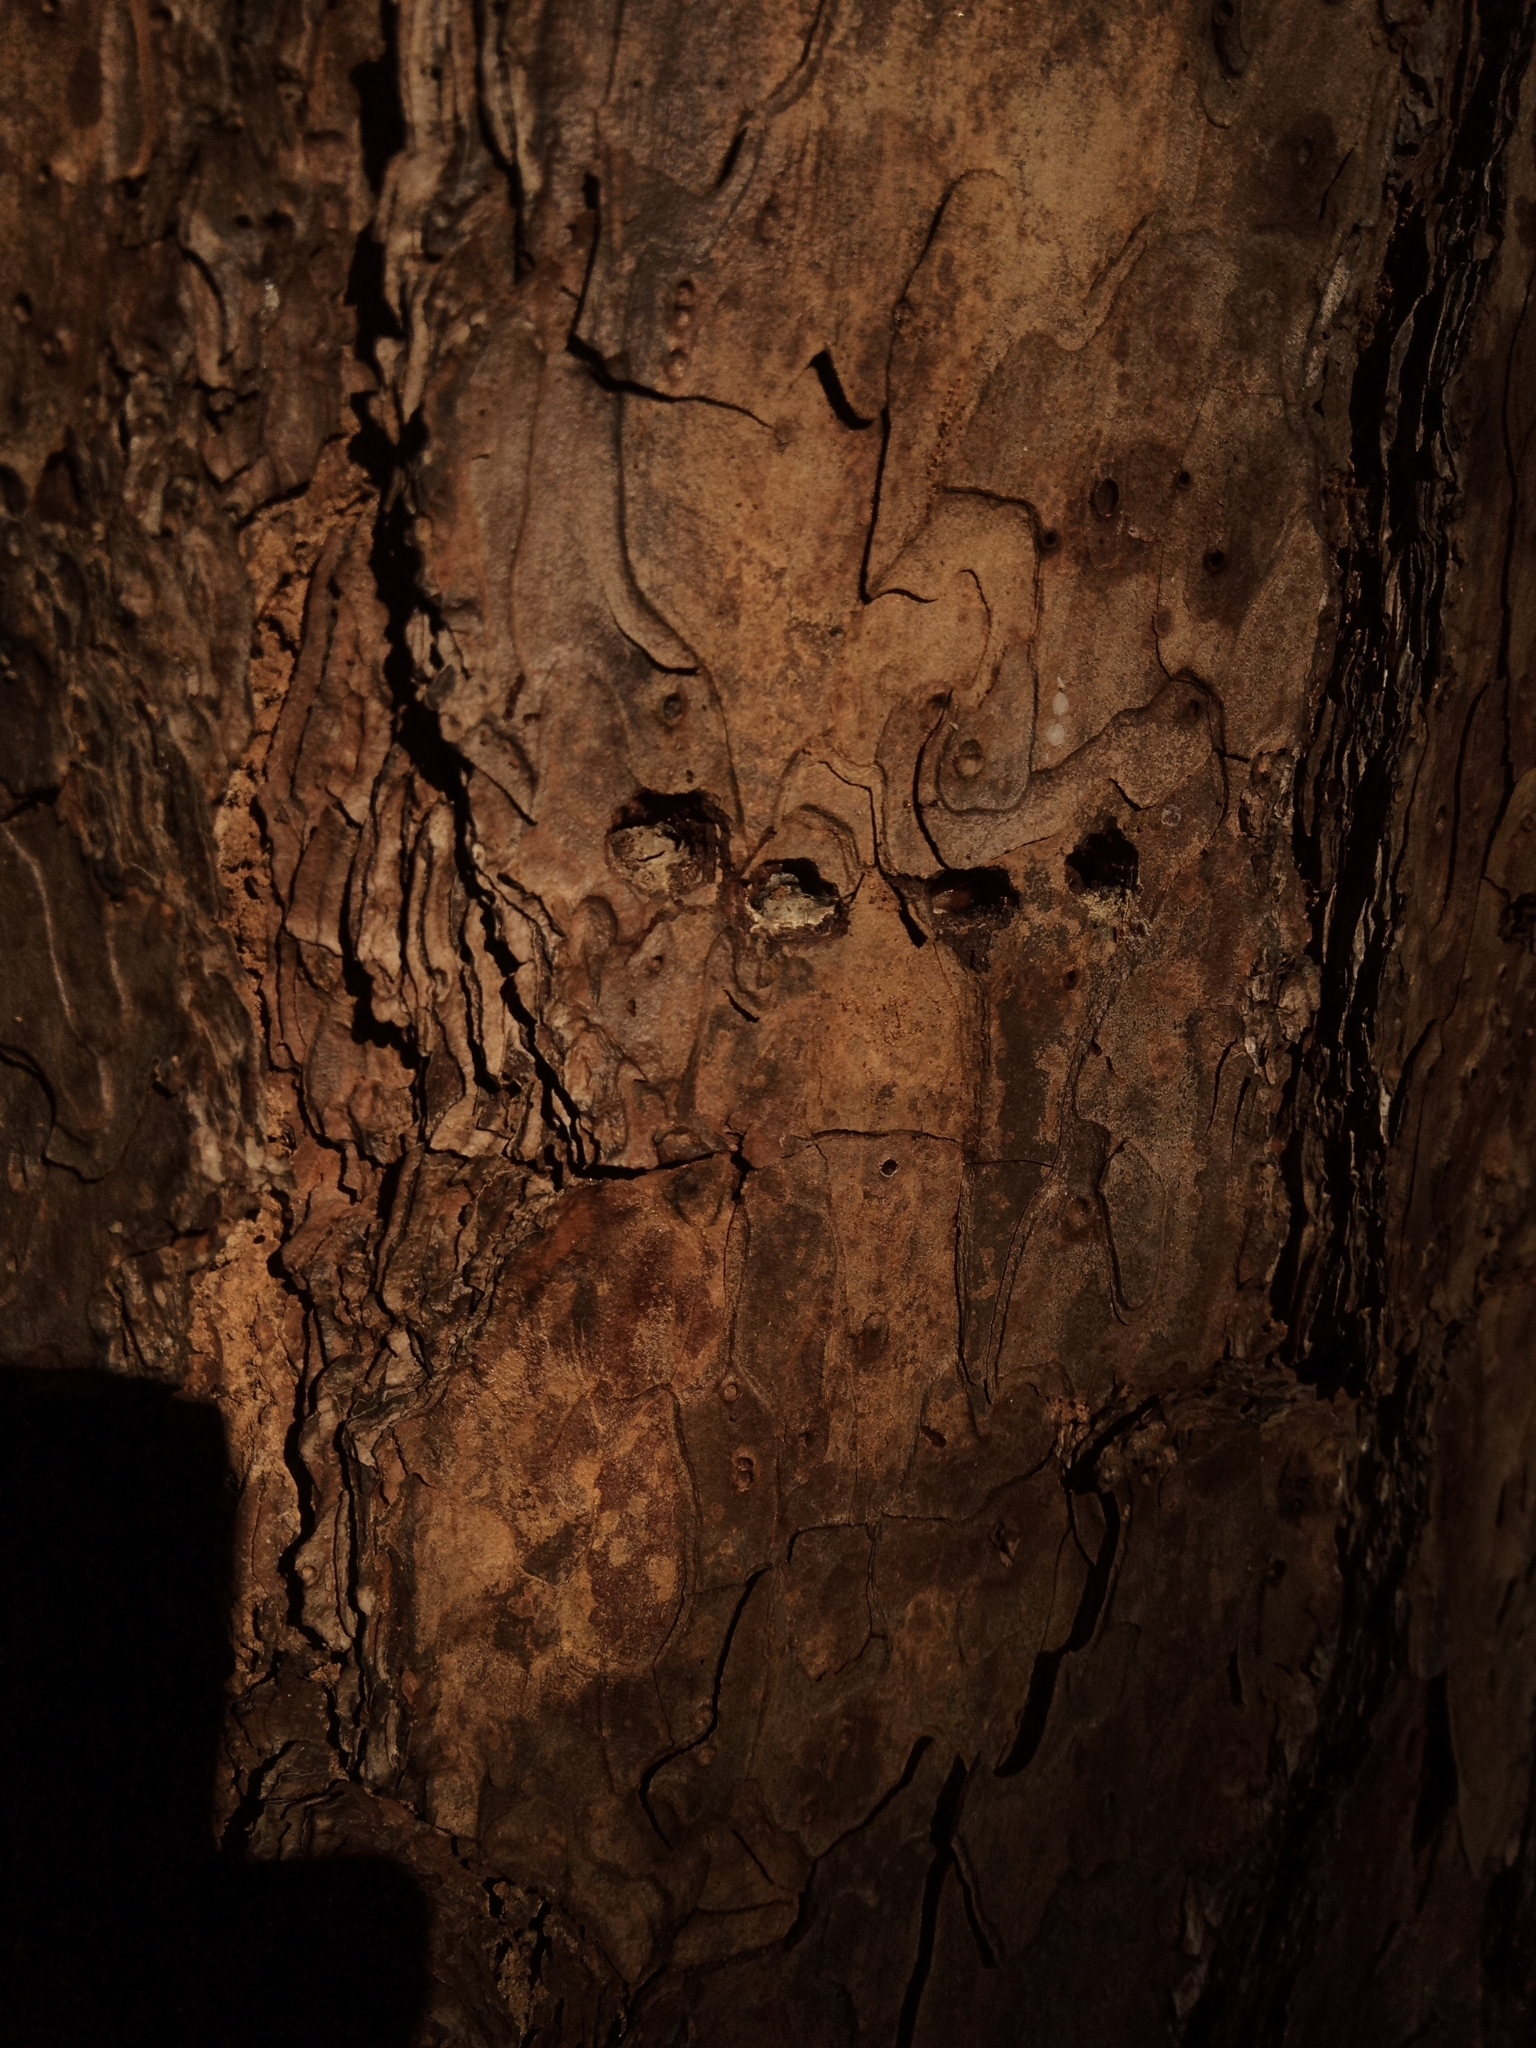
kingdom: Animalia
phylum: Chordata
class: Aves
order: Piciformes
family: Picidae
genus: Sphyrapicus
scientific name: Sphyrapicus varius
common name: Yellow-bellied sapsucker
